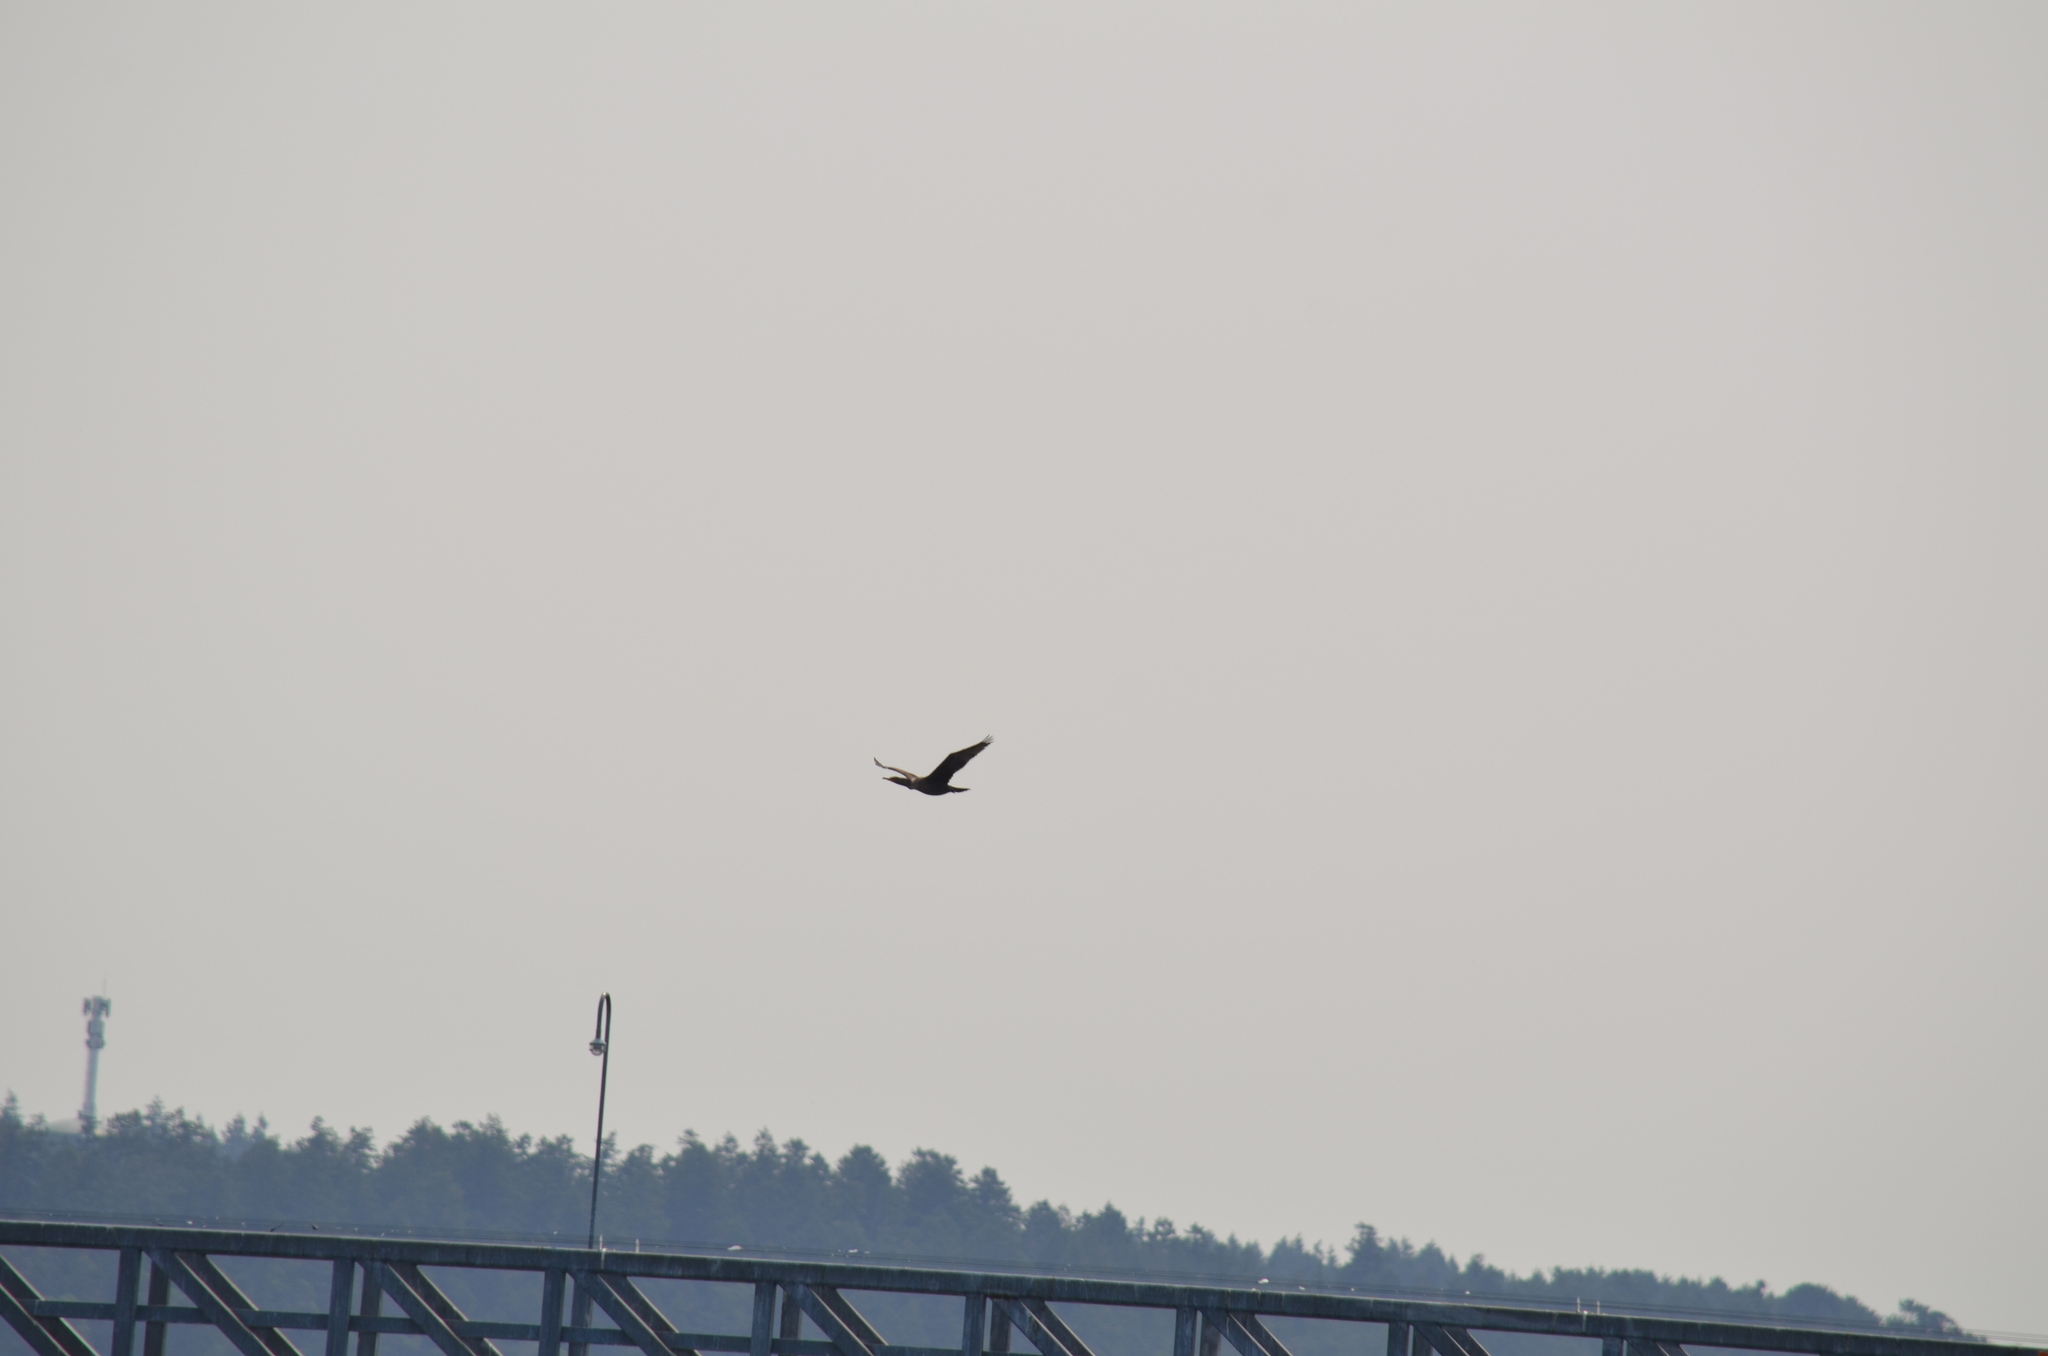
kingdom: Animalia
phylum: Chordata
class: Aves
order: Suliformes
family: Phalacrocoracidae
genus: Phalacrocorax
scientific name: Phalacrocorax pelagicus
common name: Pelagic cormorant
